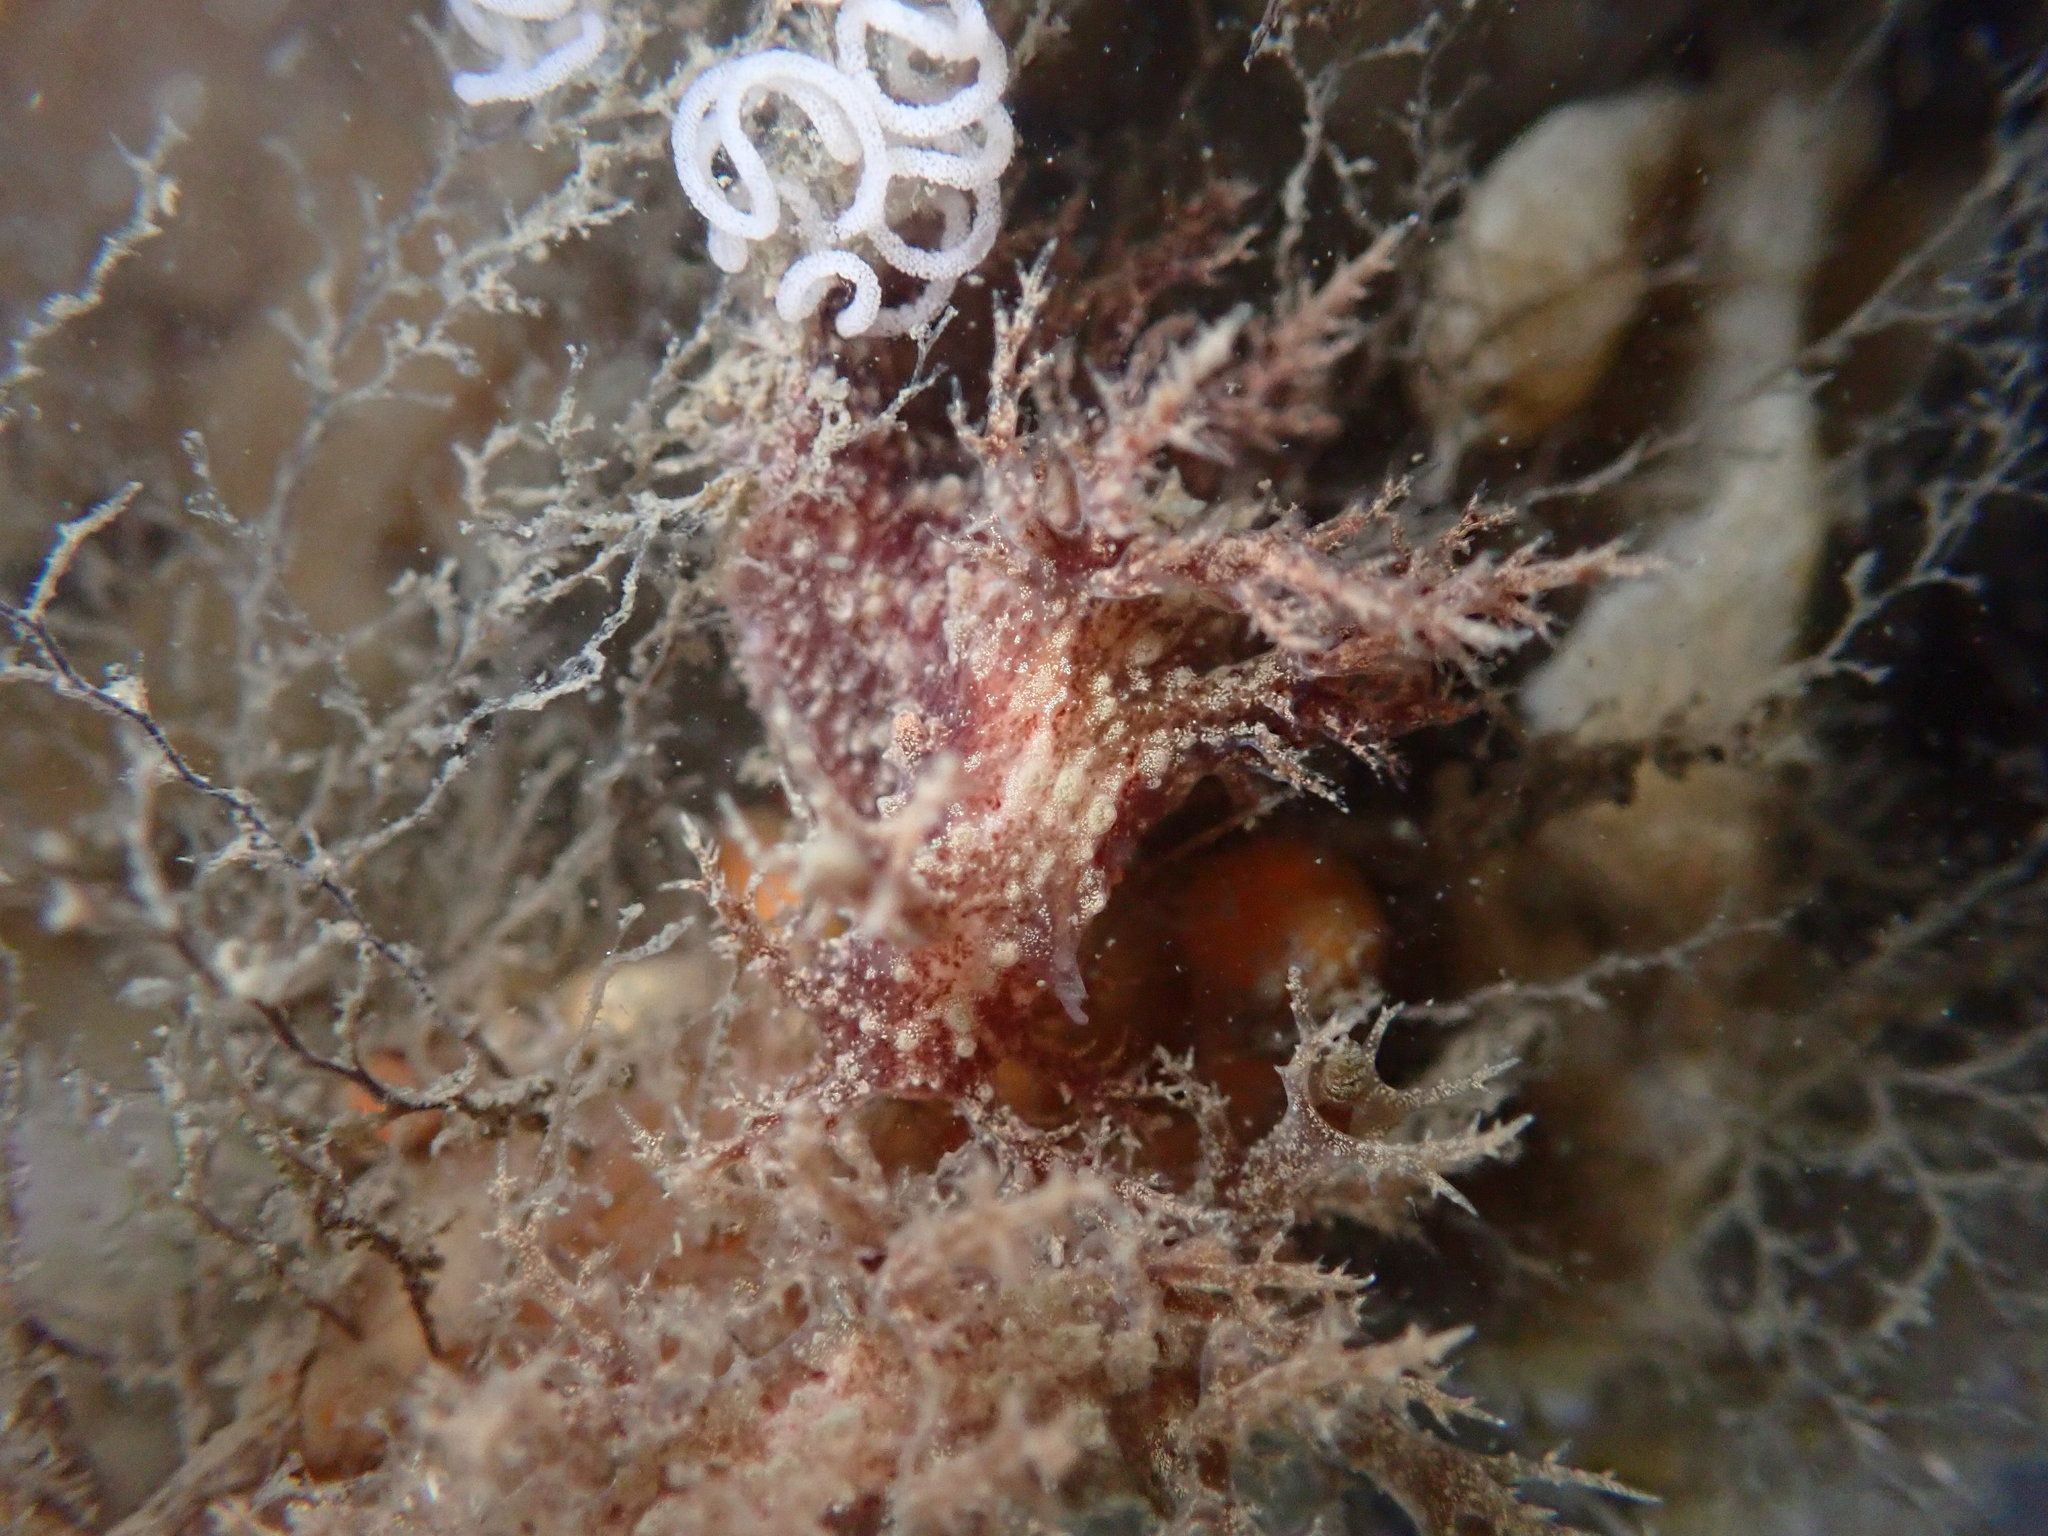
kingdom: Animalia
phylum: Mollusca
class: Gastropoda
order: Nudibranchia
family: Dendronotidae
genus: Dendronotus
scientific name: Dendronotus venustus
